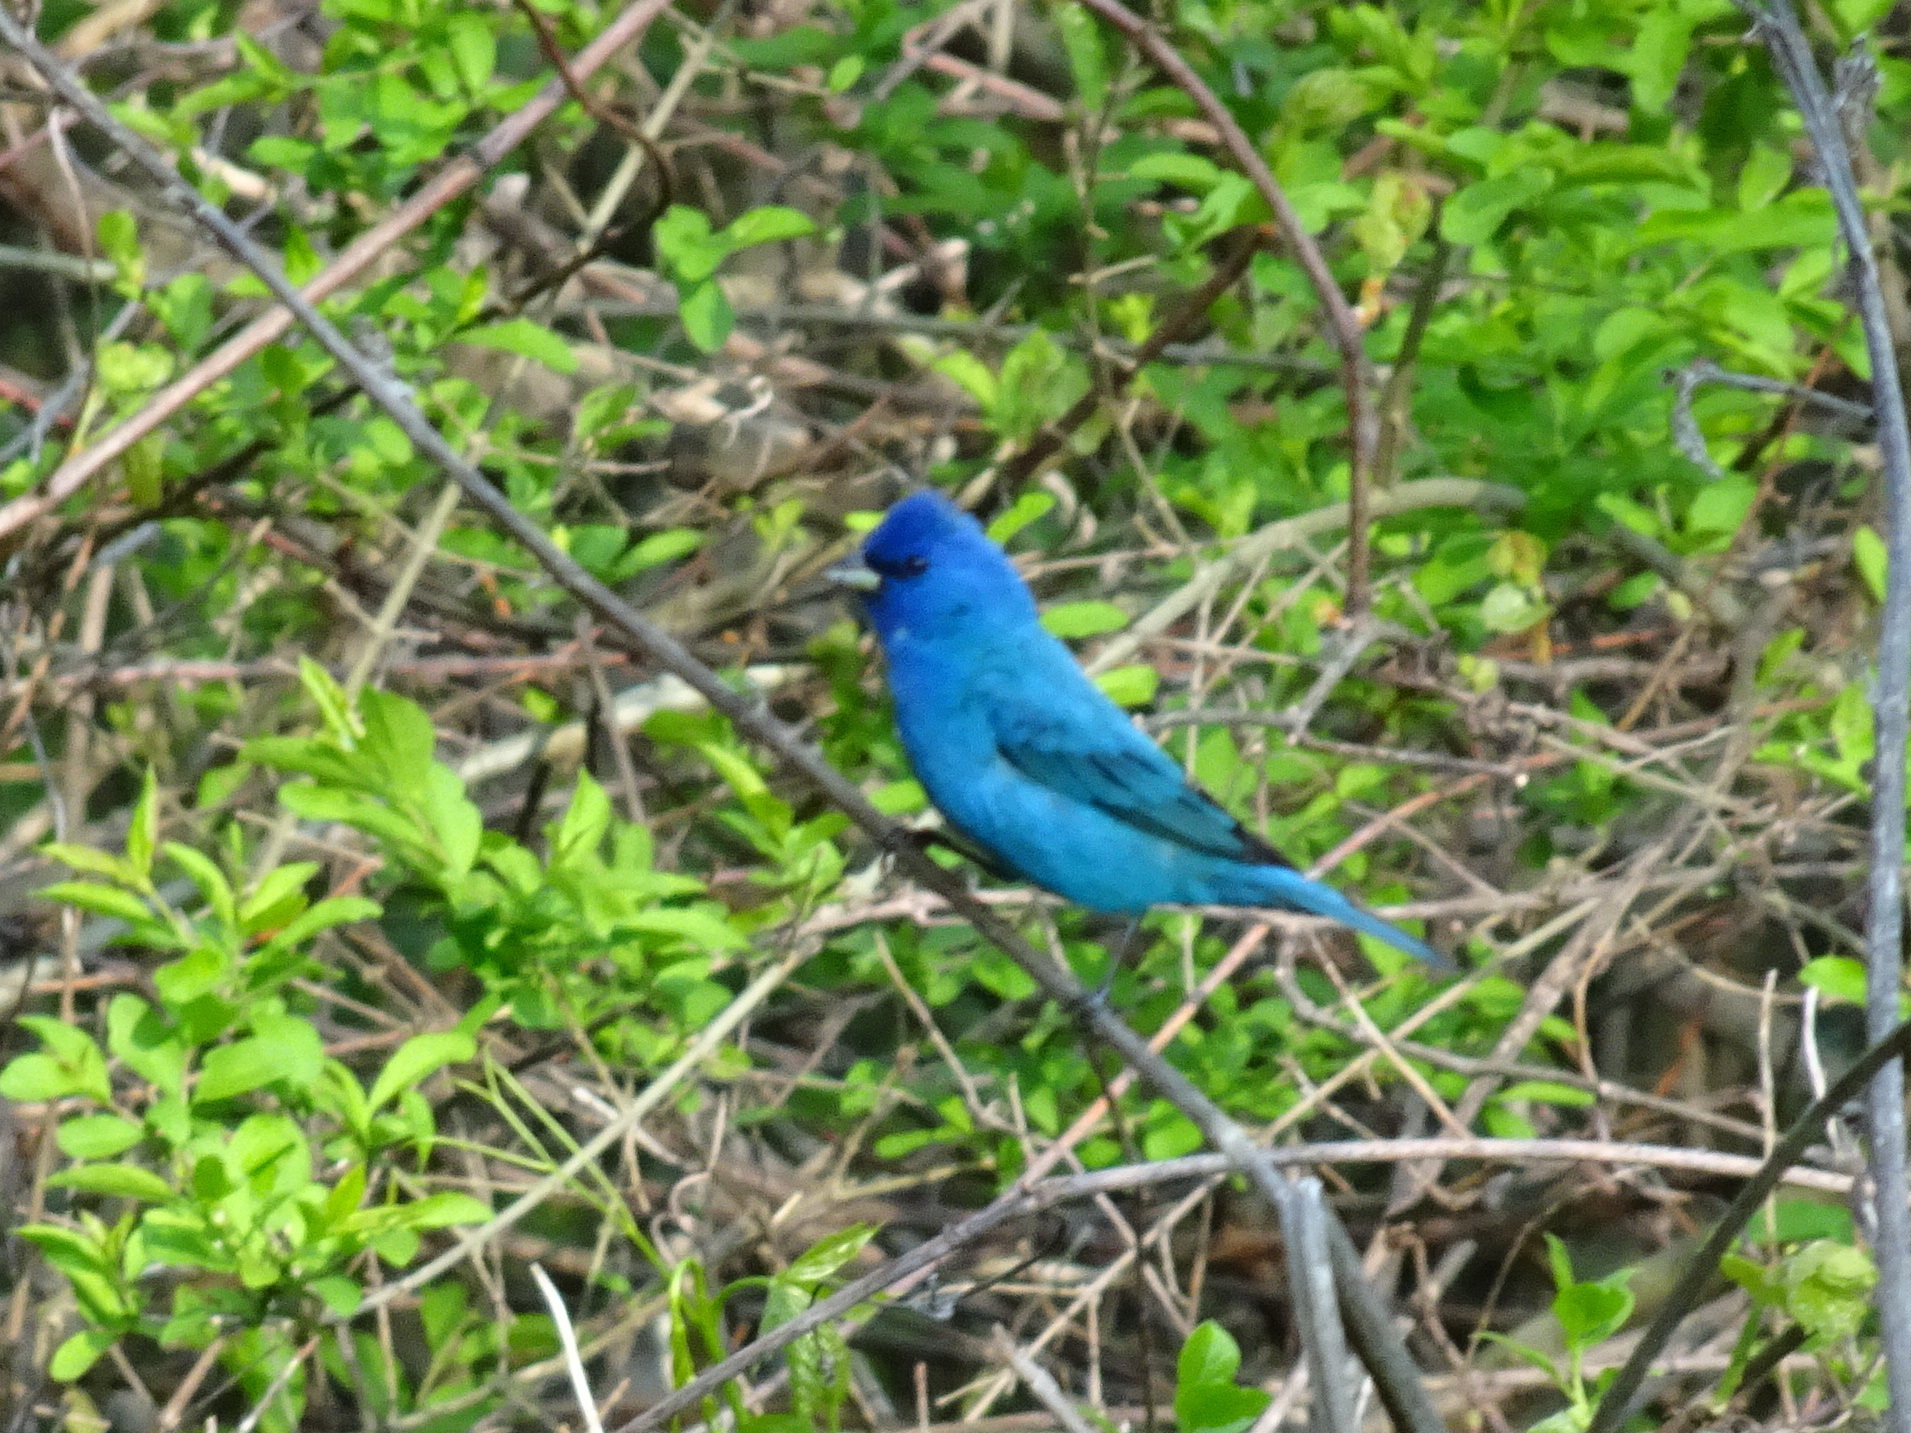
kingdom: Animalia
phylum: Chordata
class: Aves
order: Passeriformes
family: Cardinalidae
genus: Passerina
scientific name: Passerina cyanea
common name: Indigo bunting
